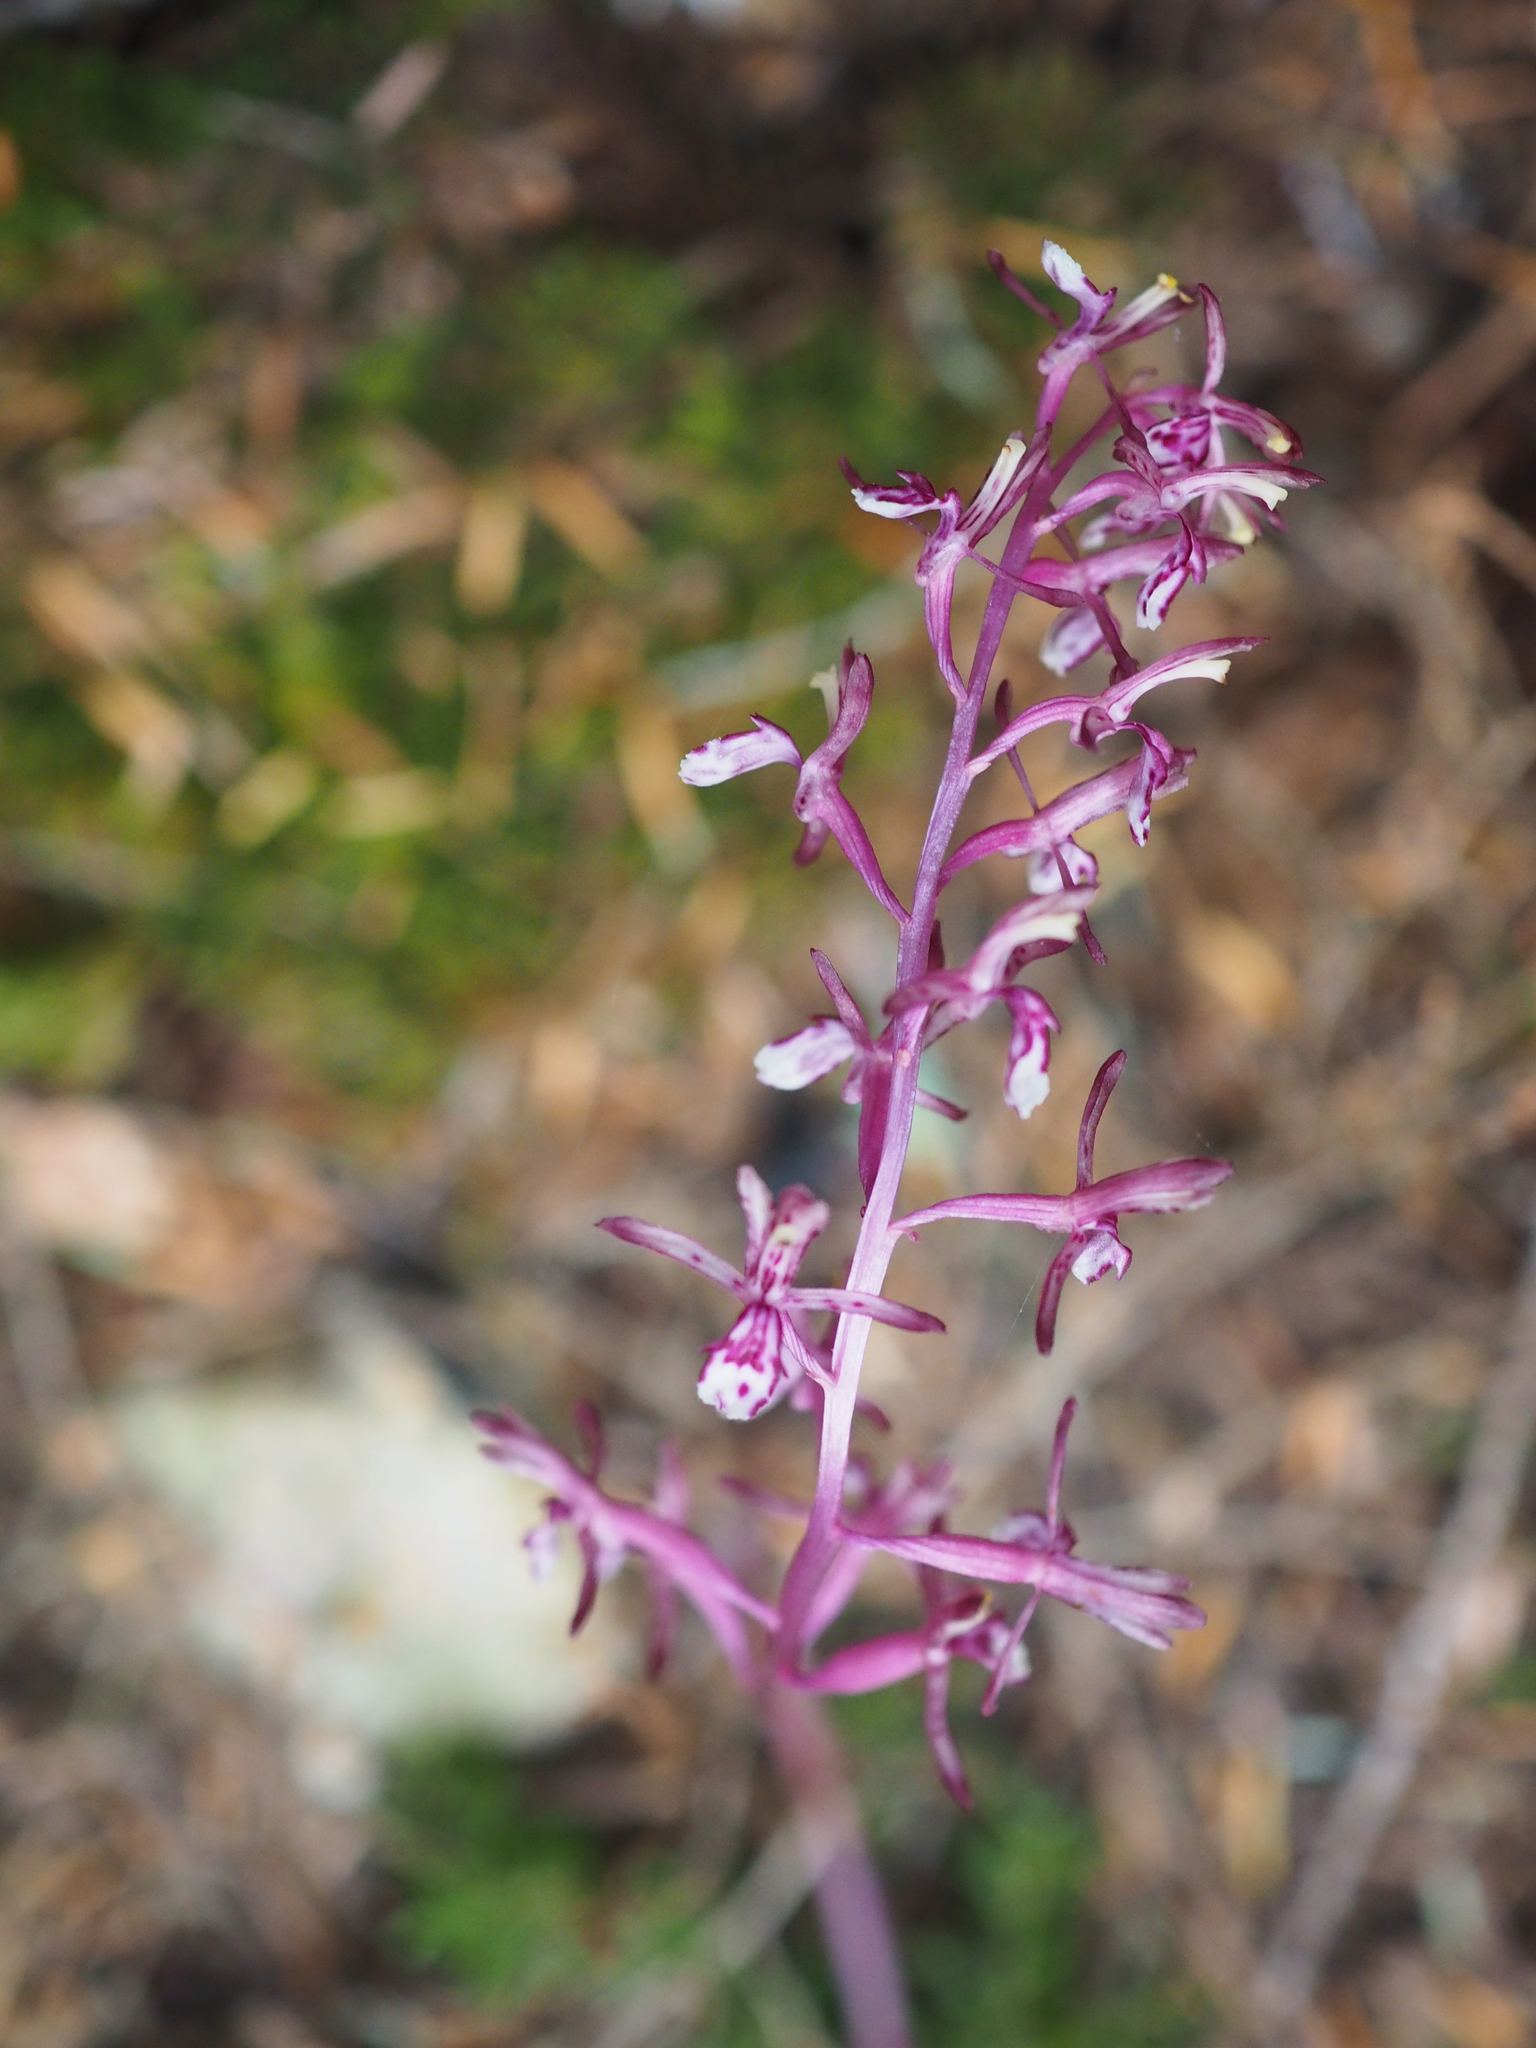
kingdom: Plantae
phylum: Tracheophyta
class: Liliopsida
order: Asparagales
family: Orchidaceae
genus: Corallorhiza
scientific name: Corallorhiza mertensiana
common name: Pacific coralroot
